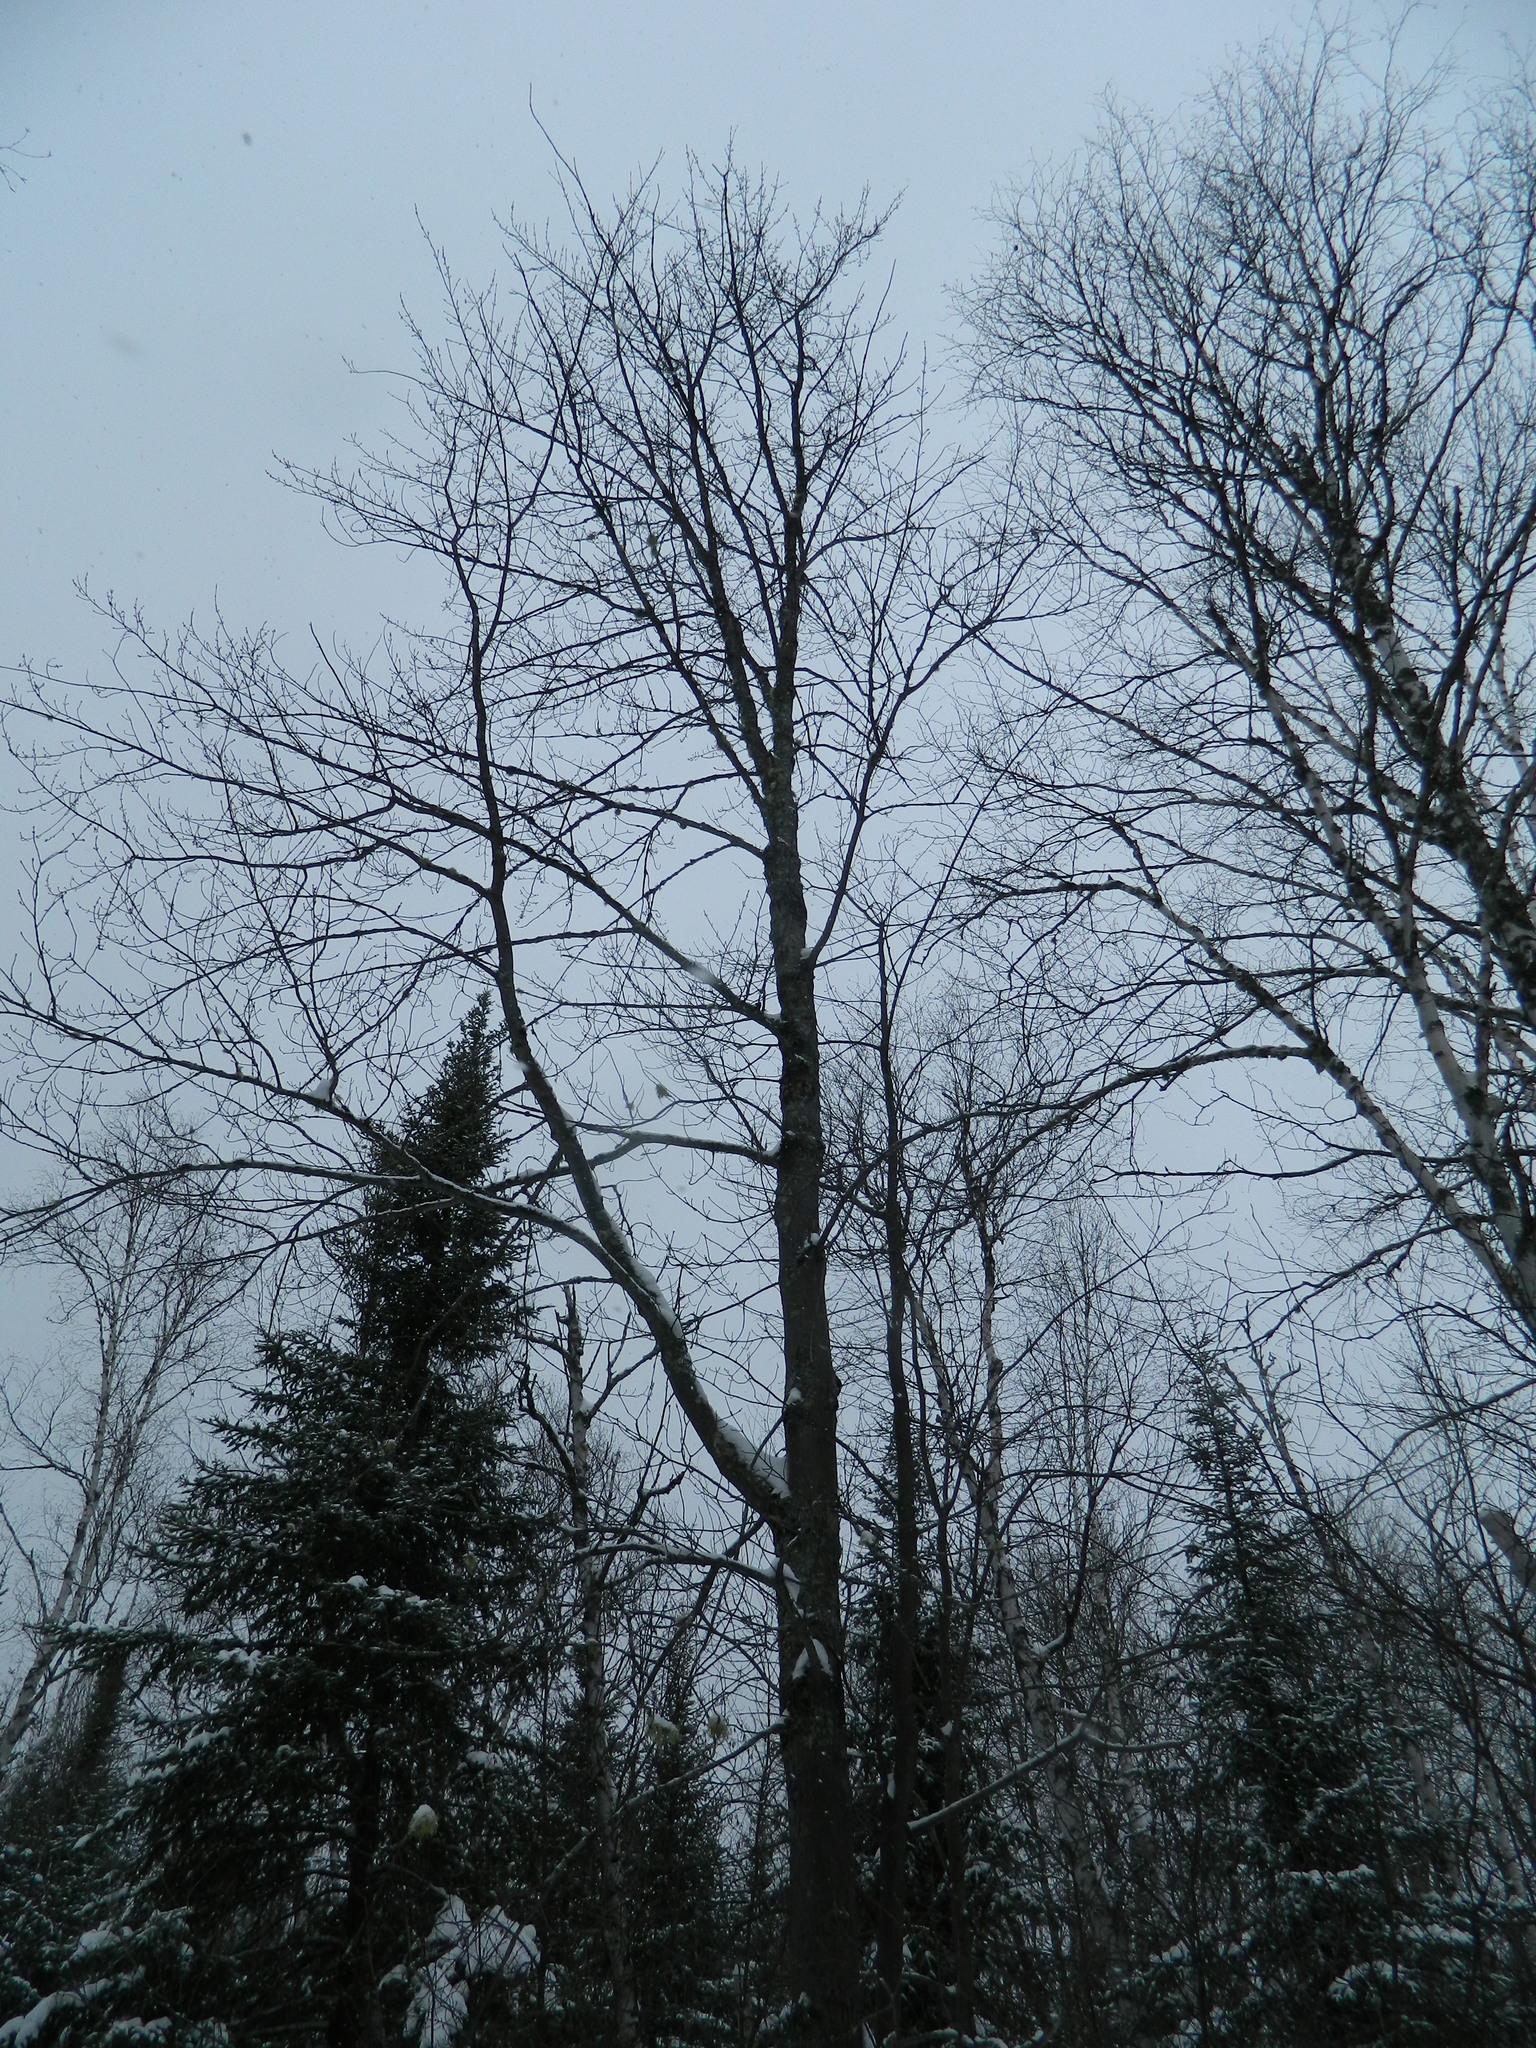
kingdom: Plantae
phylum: Tracheophyta
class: Magnoliopsida
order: Sapindales
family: Sapindaceae
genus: Acer
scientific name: Acer rubrum
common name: Red maple
